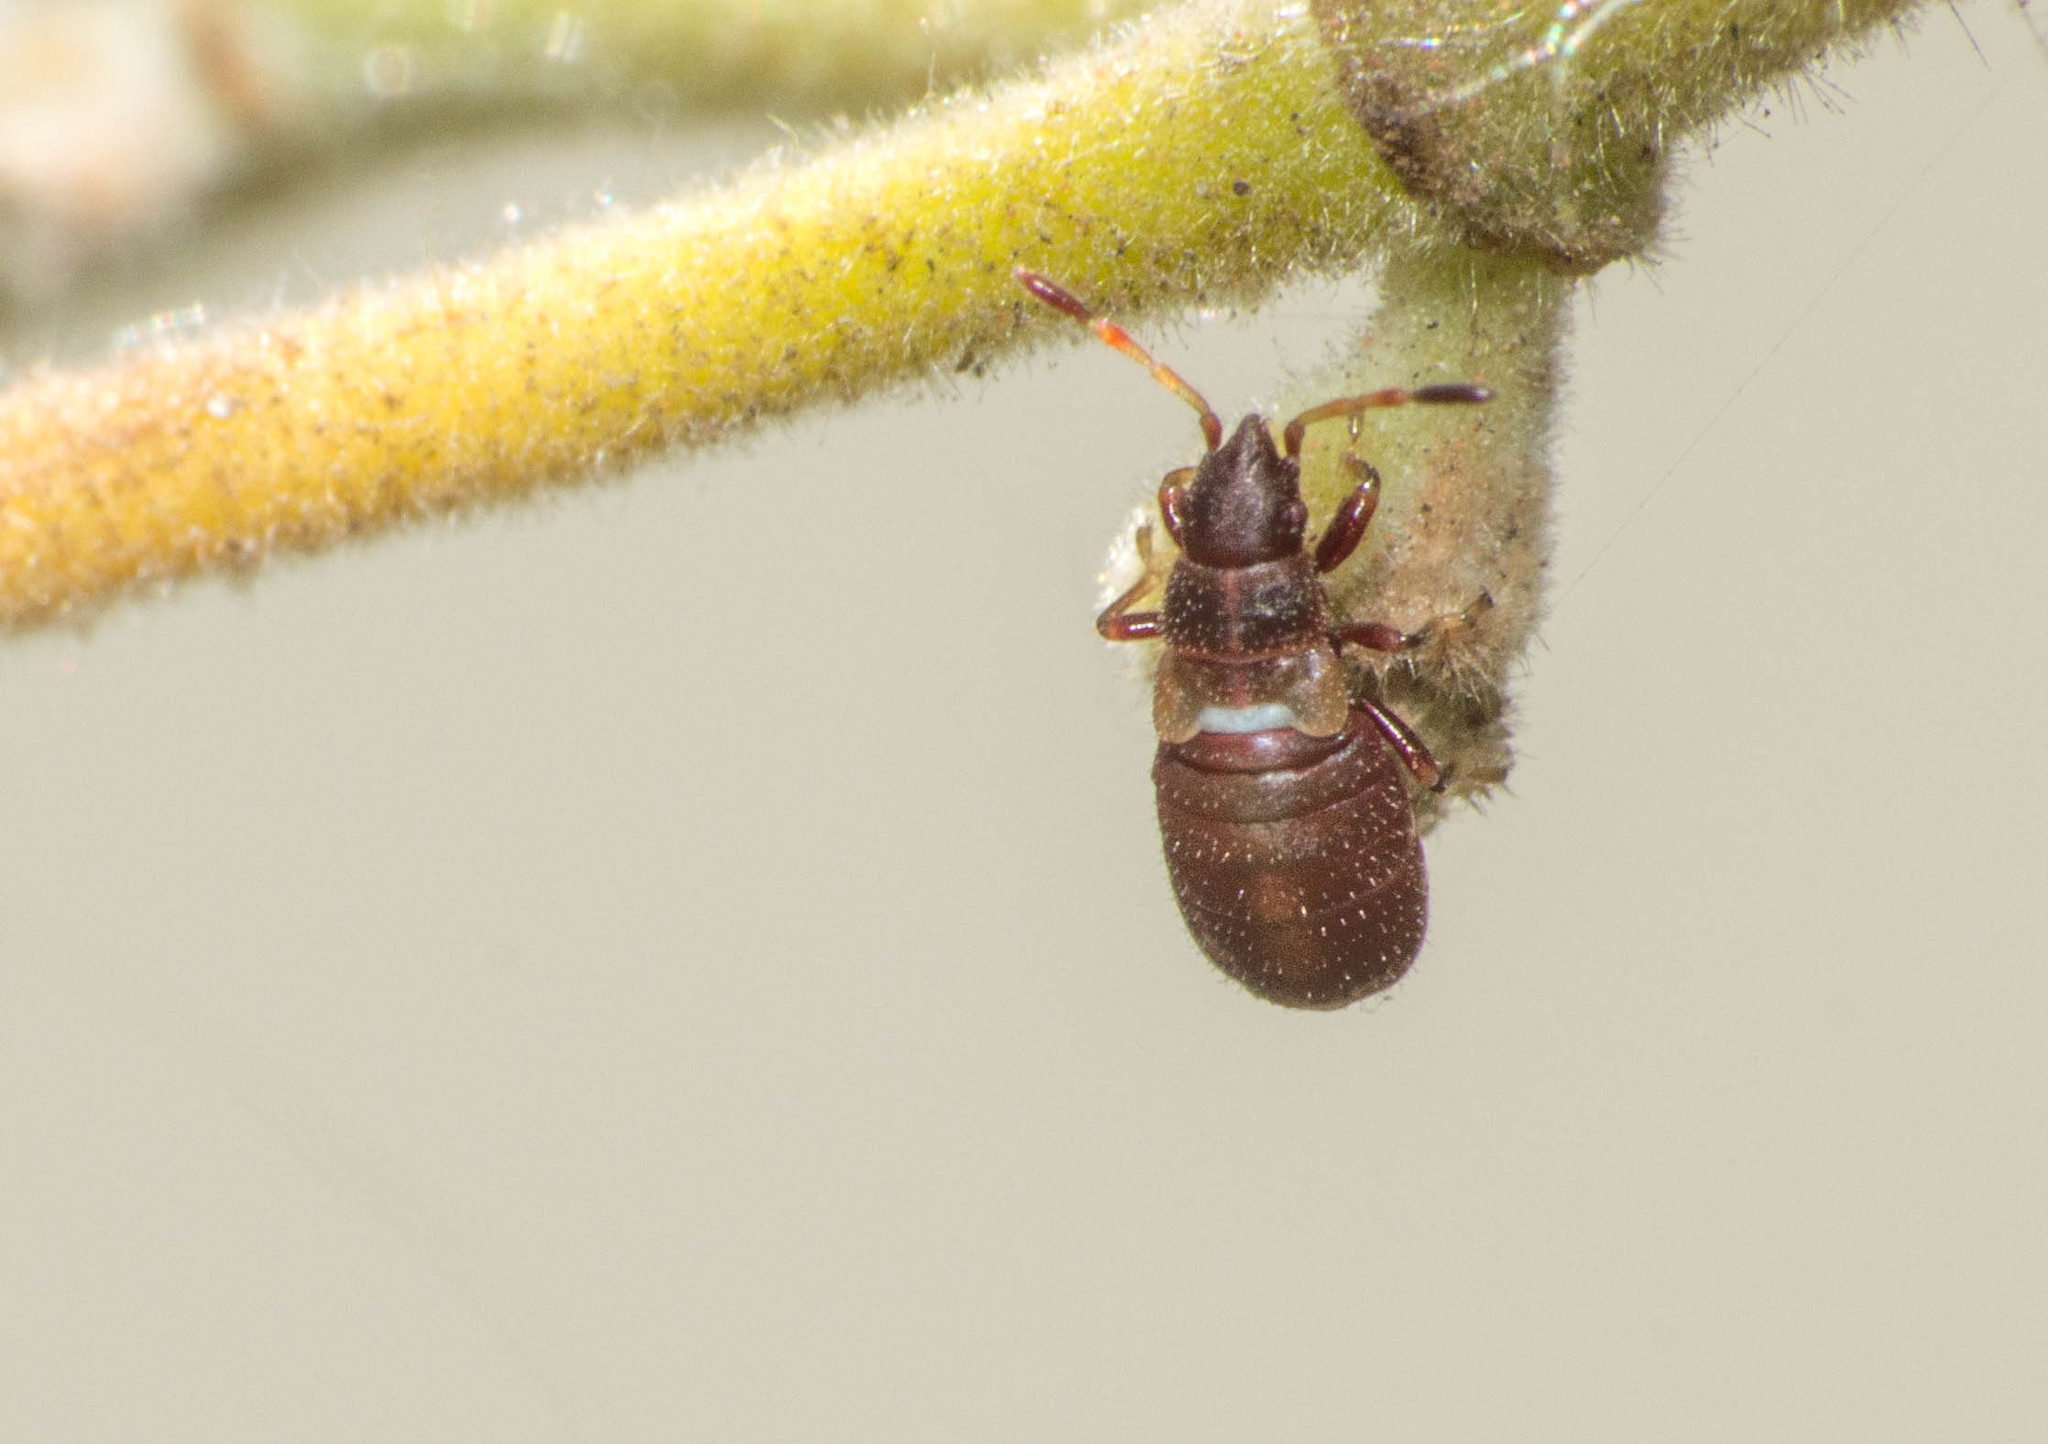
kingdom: Animalia
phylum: Arthropoda
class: Insecta
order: Hemiptera
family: Oxycarenidae
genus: Oxycarenus
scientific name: Oxycarenus hyalinipennis
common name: Cotton seed bug
